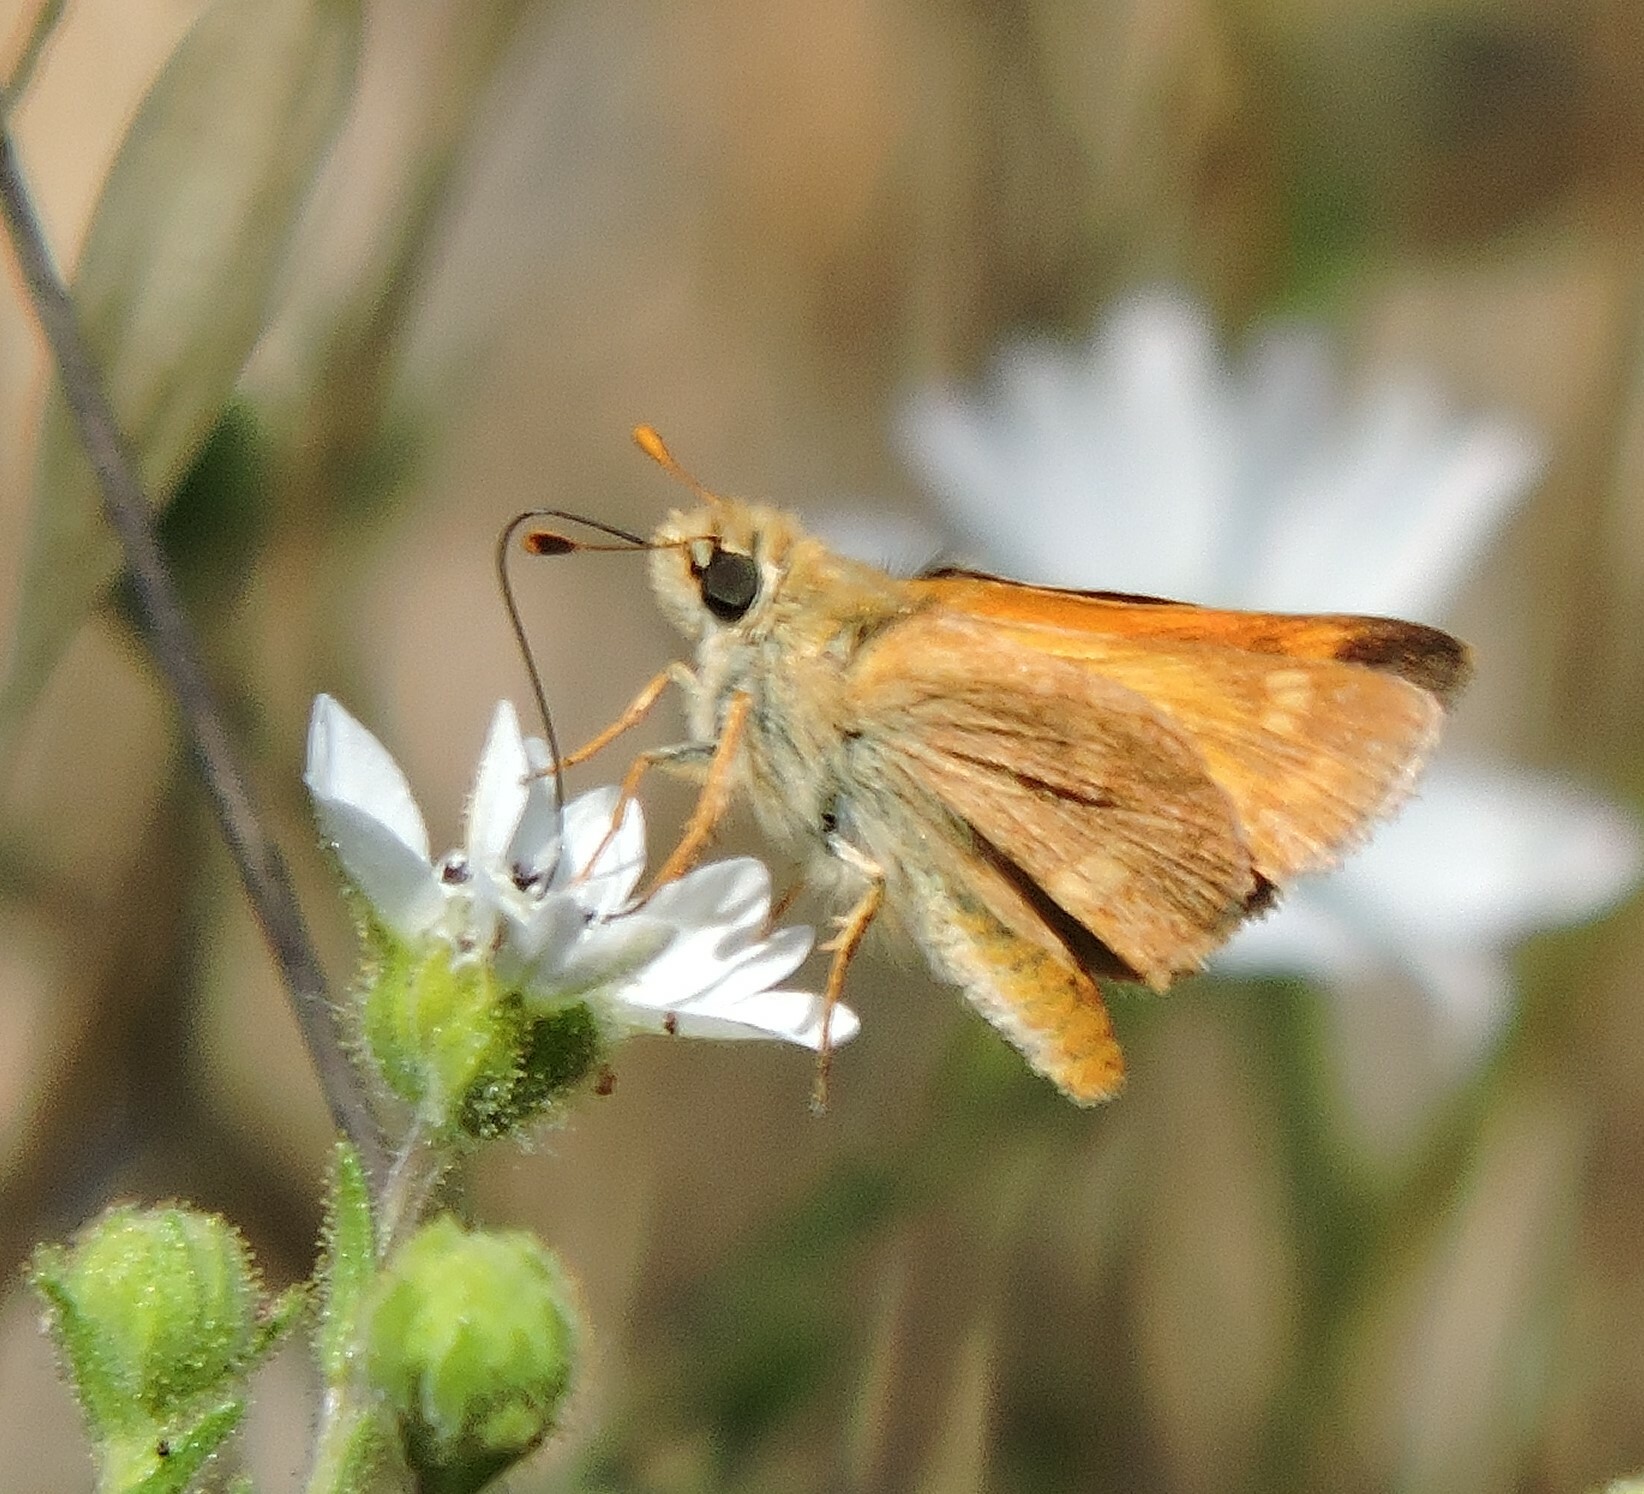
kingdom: Animalia
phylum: Arthropoda
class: Insecta
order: Lepidoptera
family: Hesperiidae
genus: Ochlodes
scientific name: Ochlodes sylvanoides
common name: Woodland skipper
